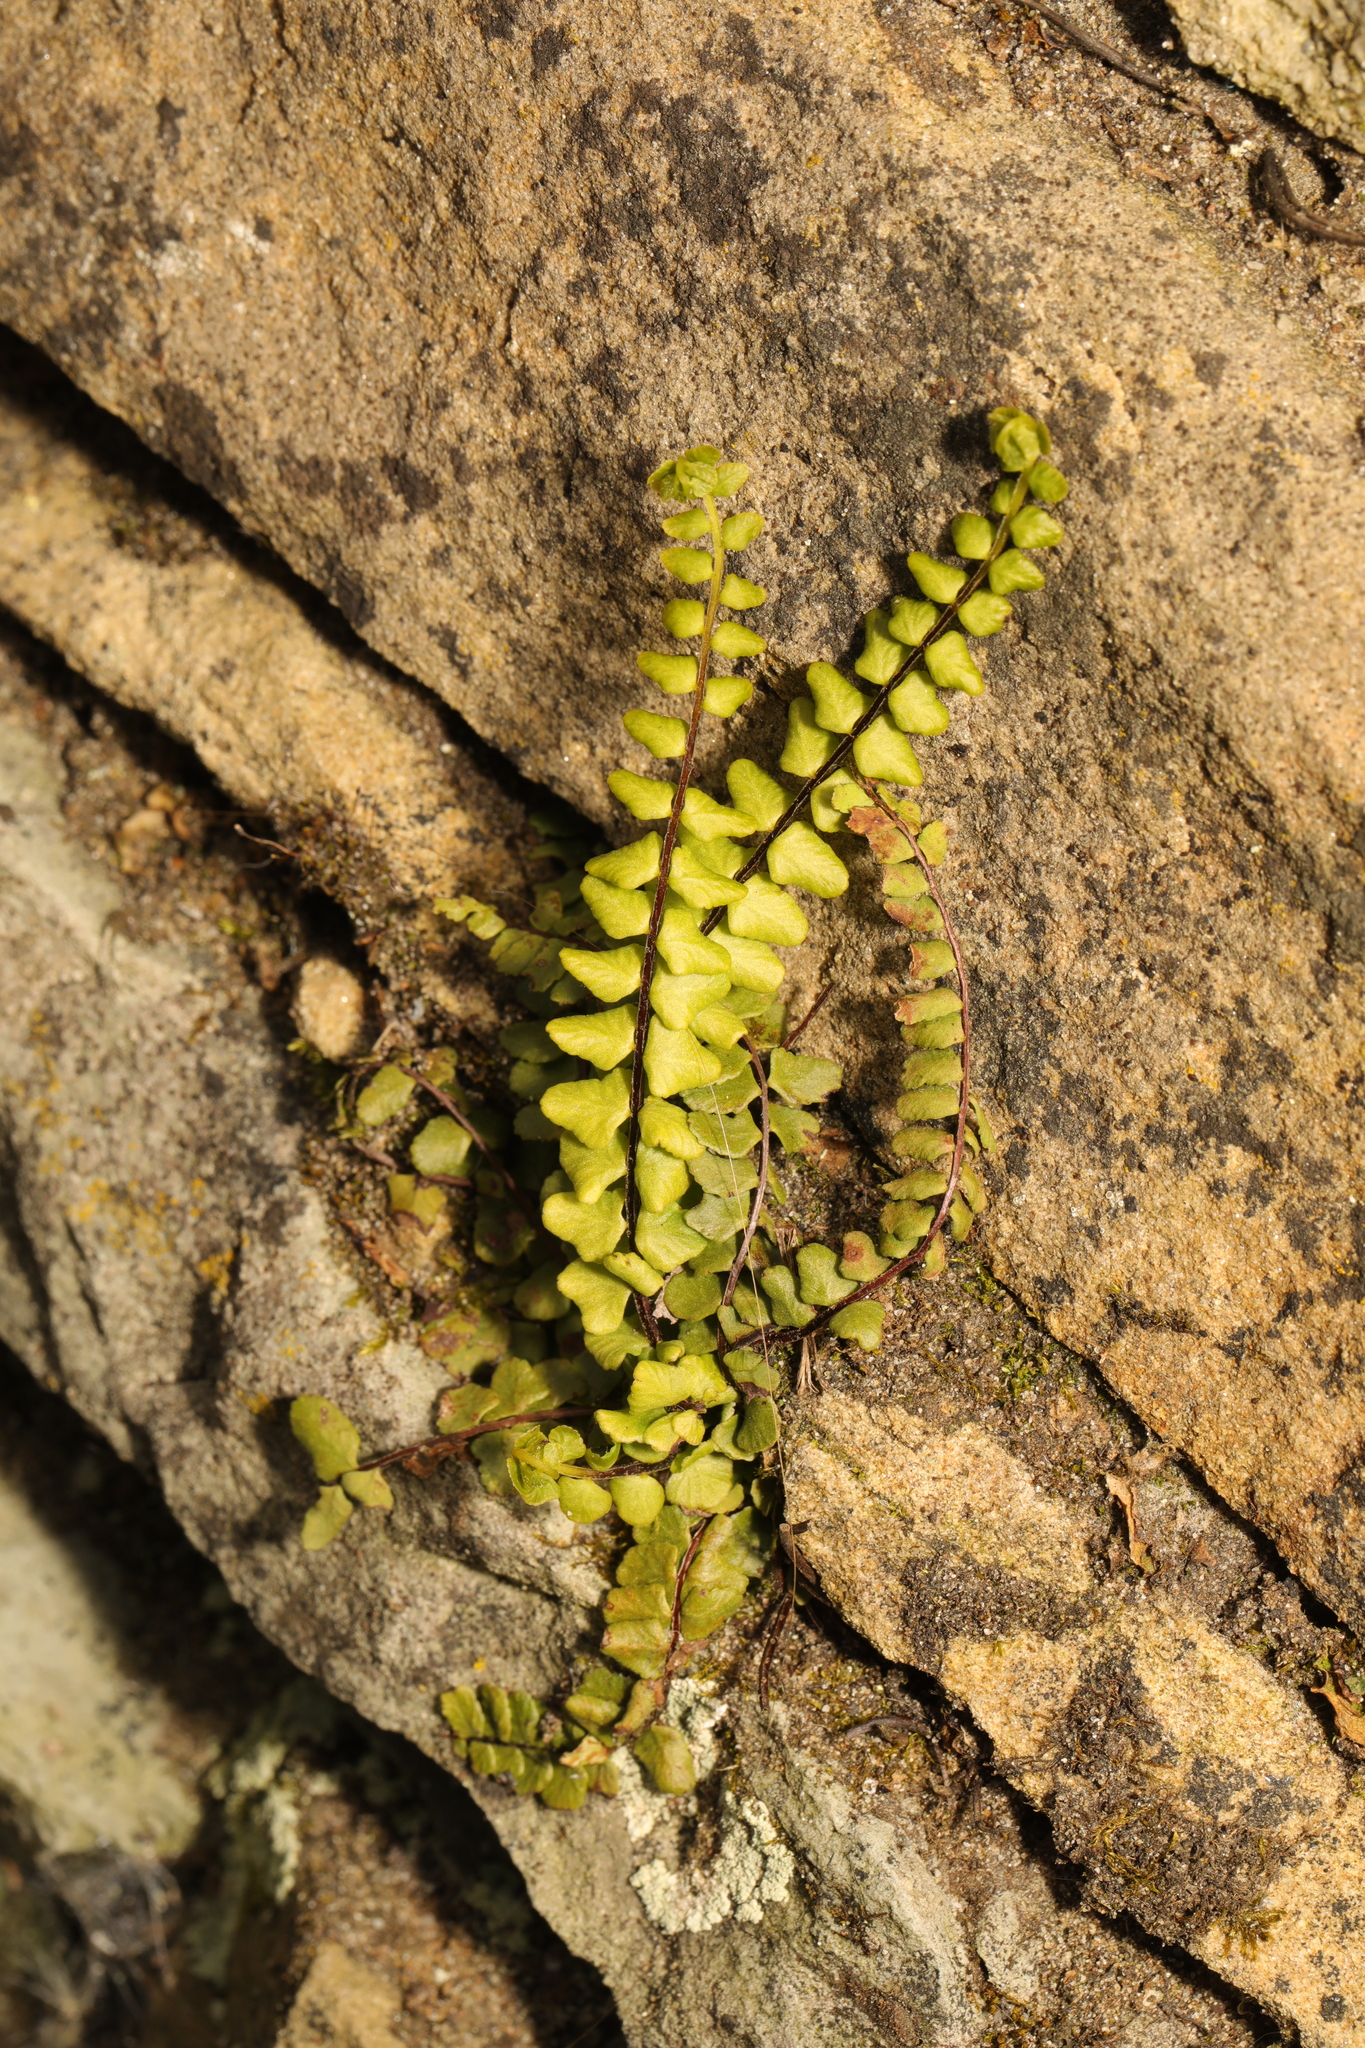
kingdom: Plantae
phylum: Tracheophyta
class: Polypodiopsida
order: Polypodiales
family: Aspleniaceae
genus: Asplenium
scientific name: Asplenium trichomanes
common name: Maidenhair spleenwort
